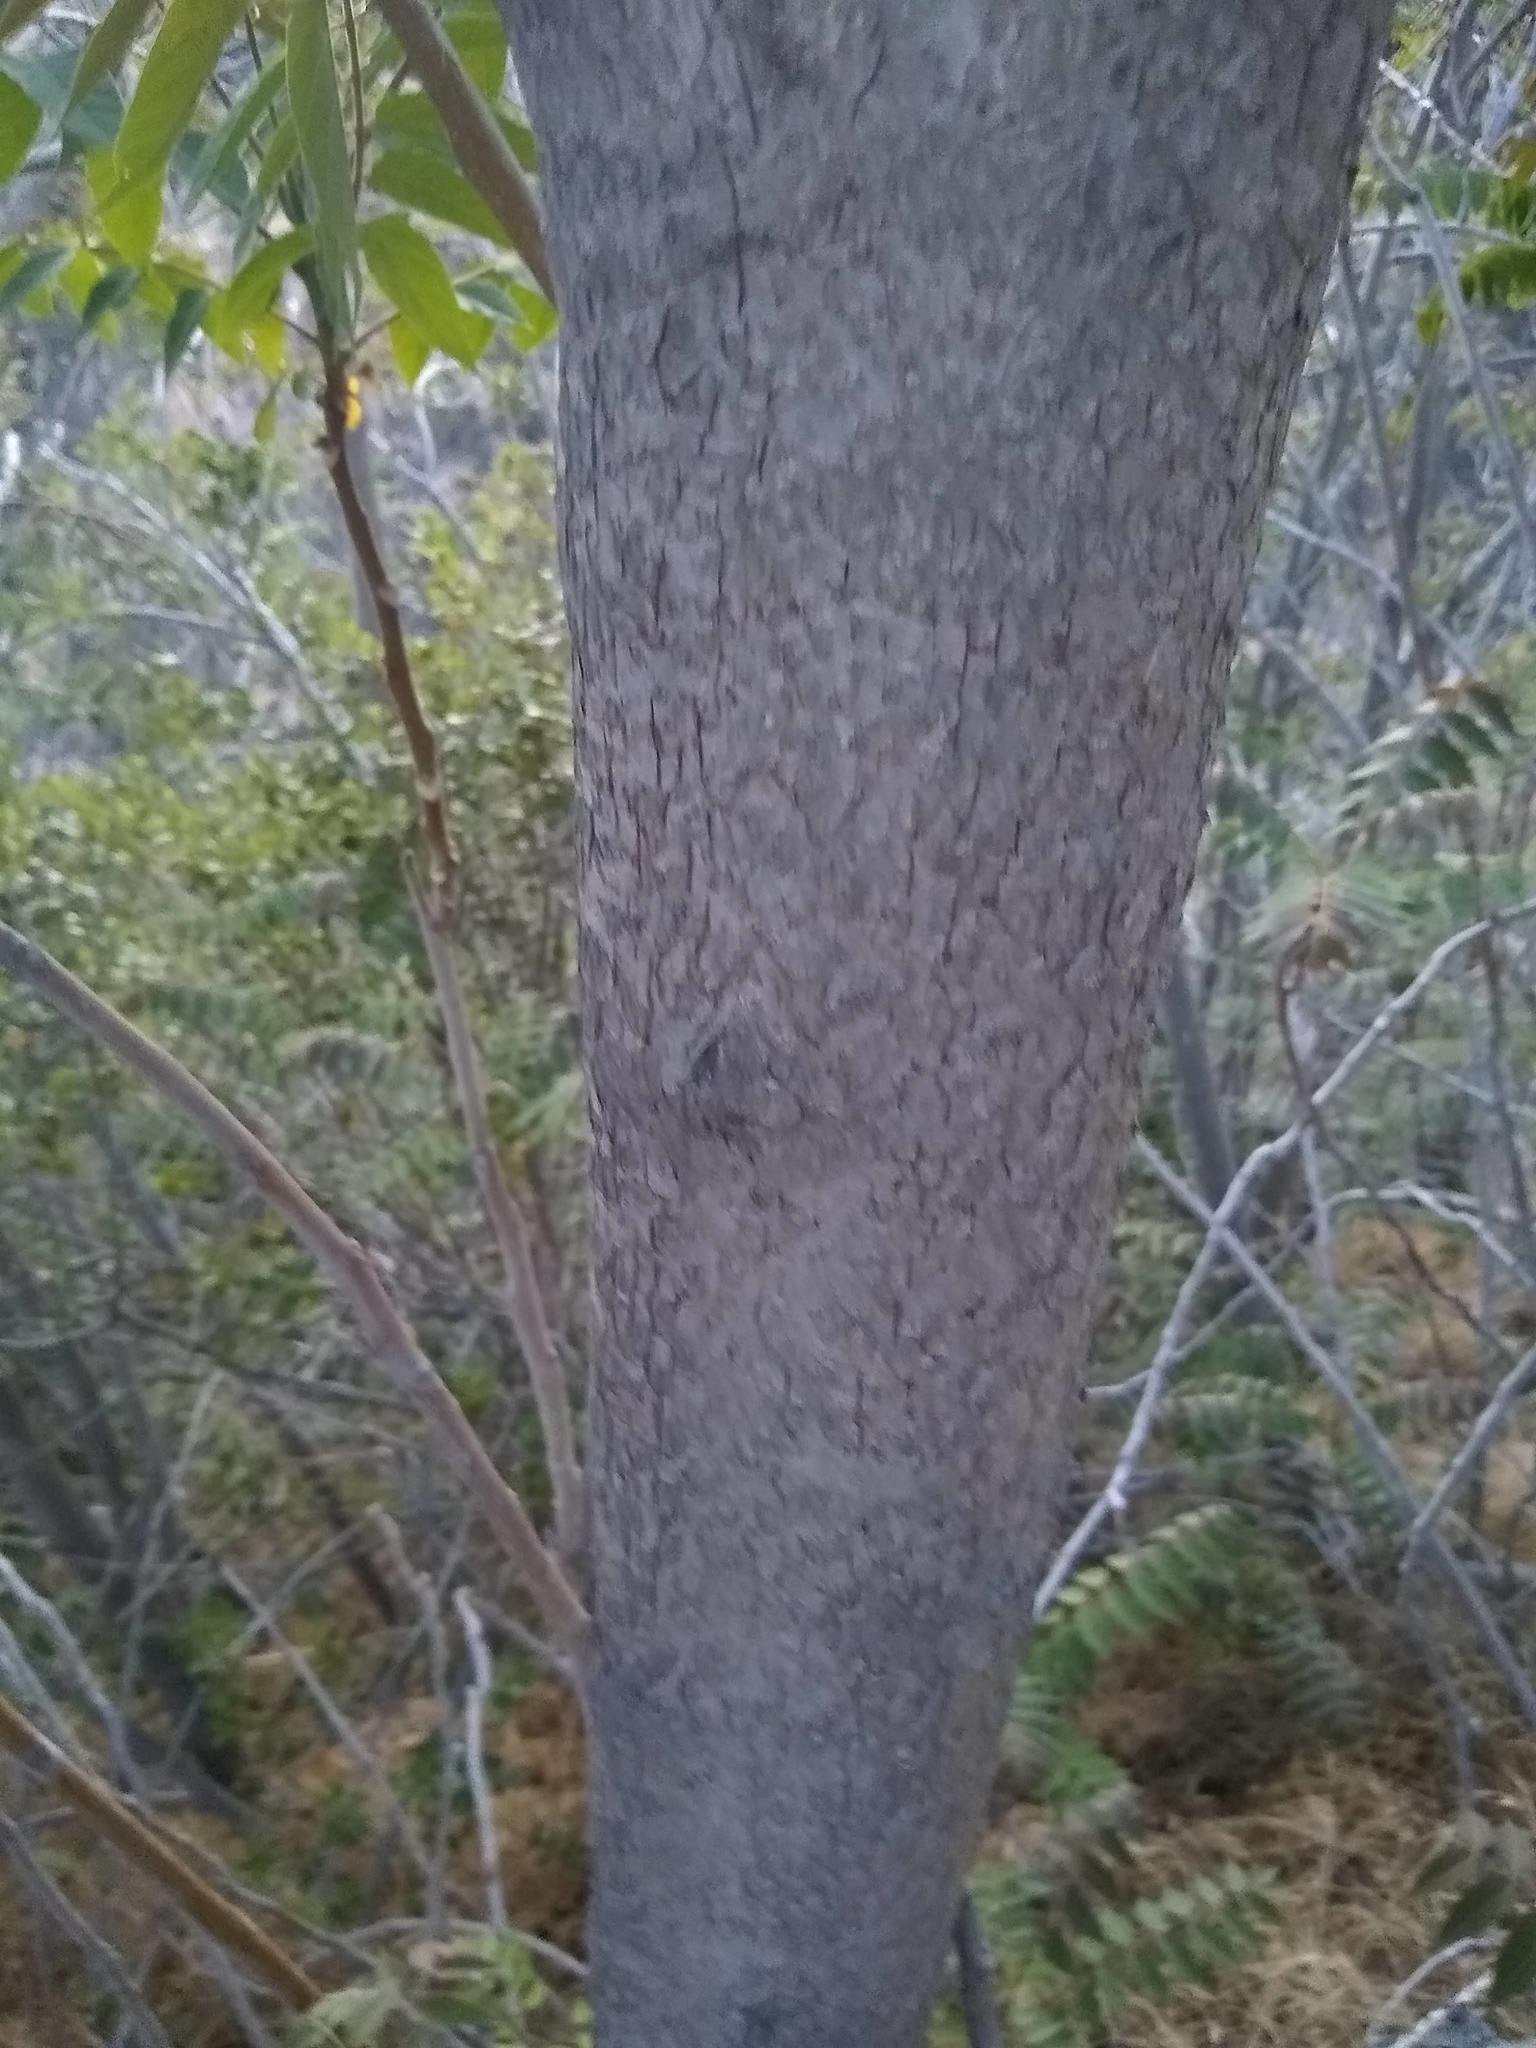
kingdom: Plantae
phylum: Tracheophyta
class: Magnoliopsida
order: Sapindales
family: Simaroubaceae
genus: Ailanthus
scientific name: Ailanthus altissima
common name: Tree-of-heaven
